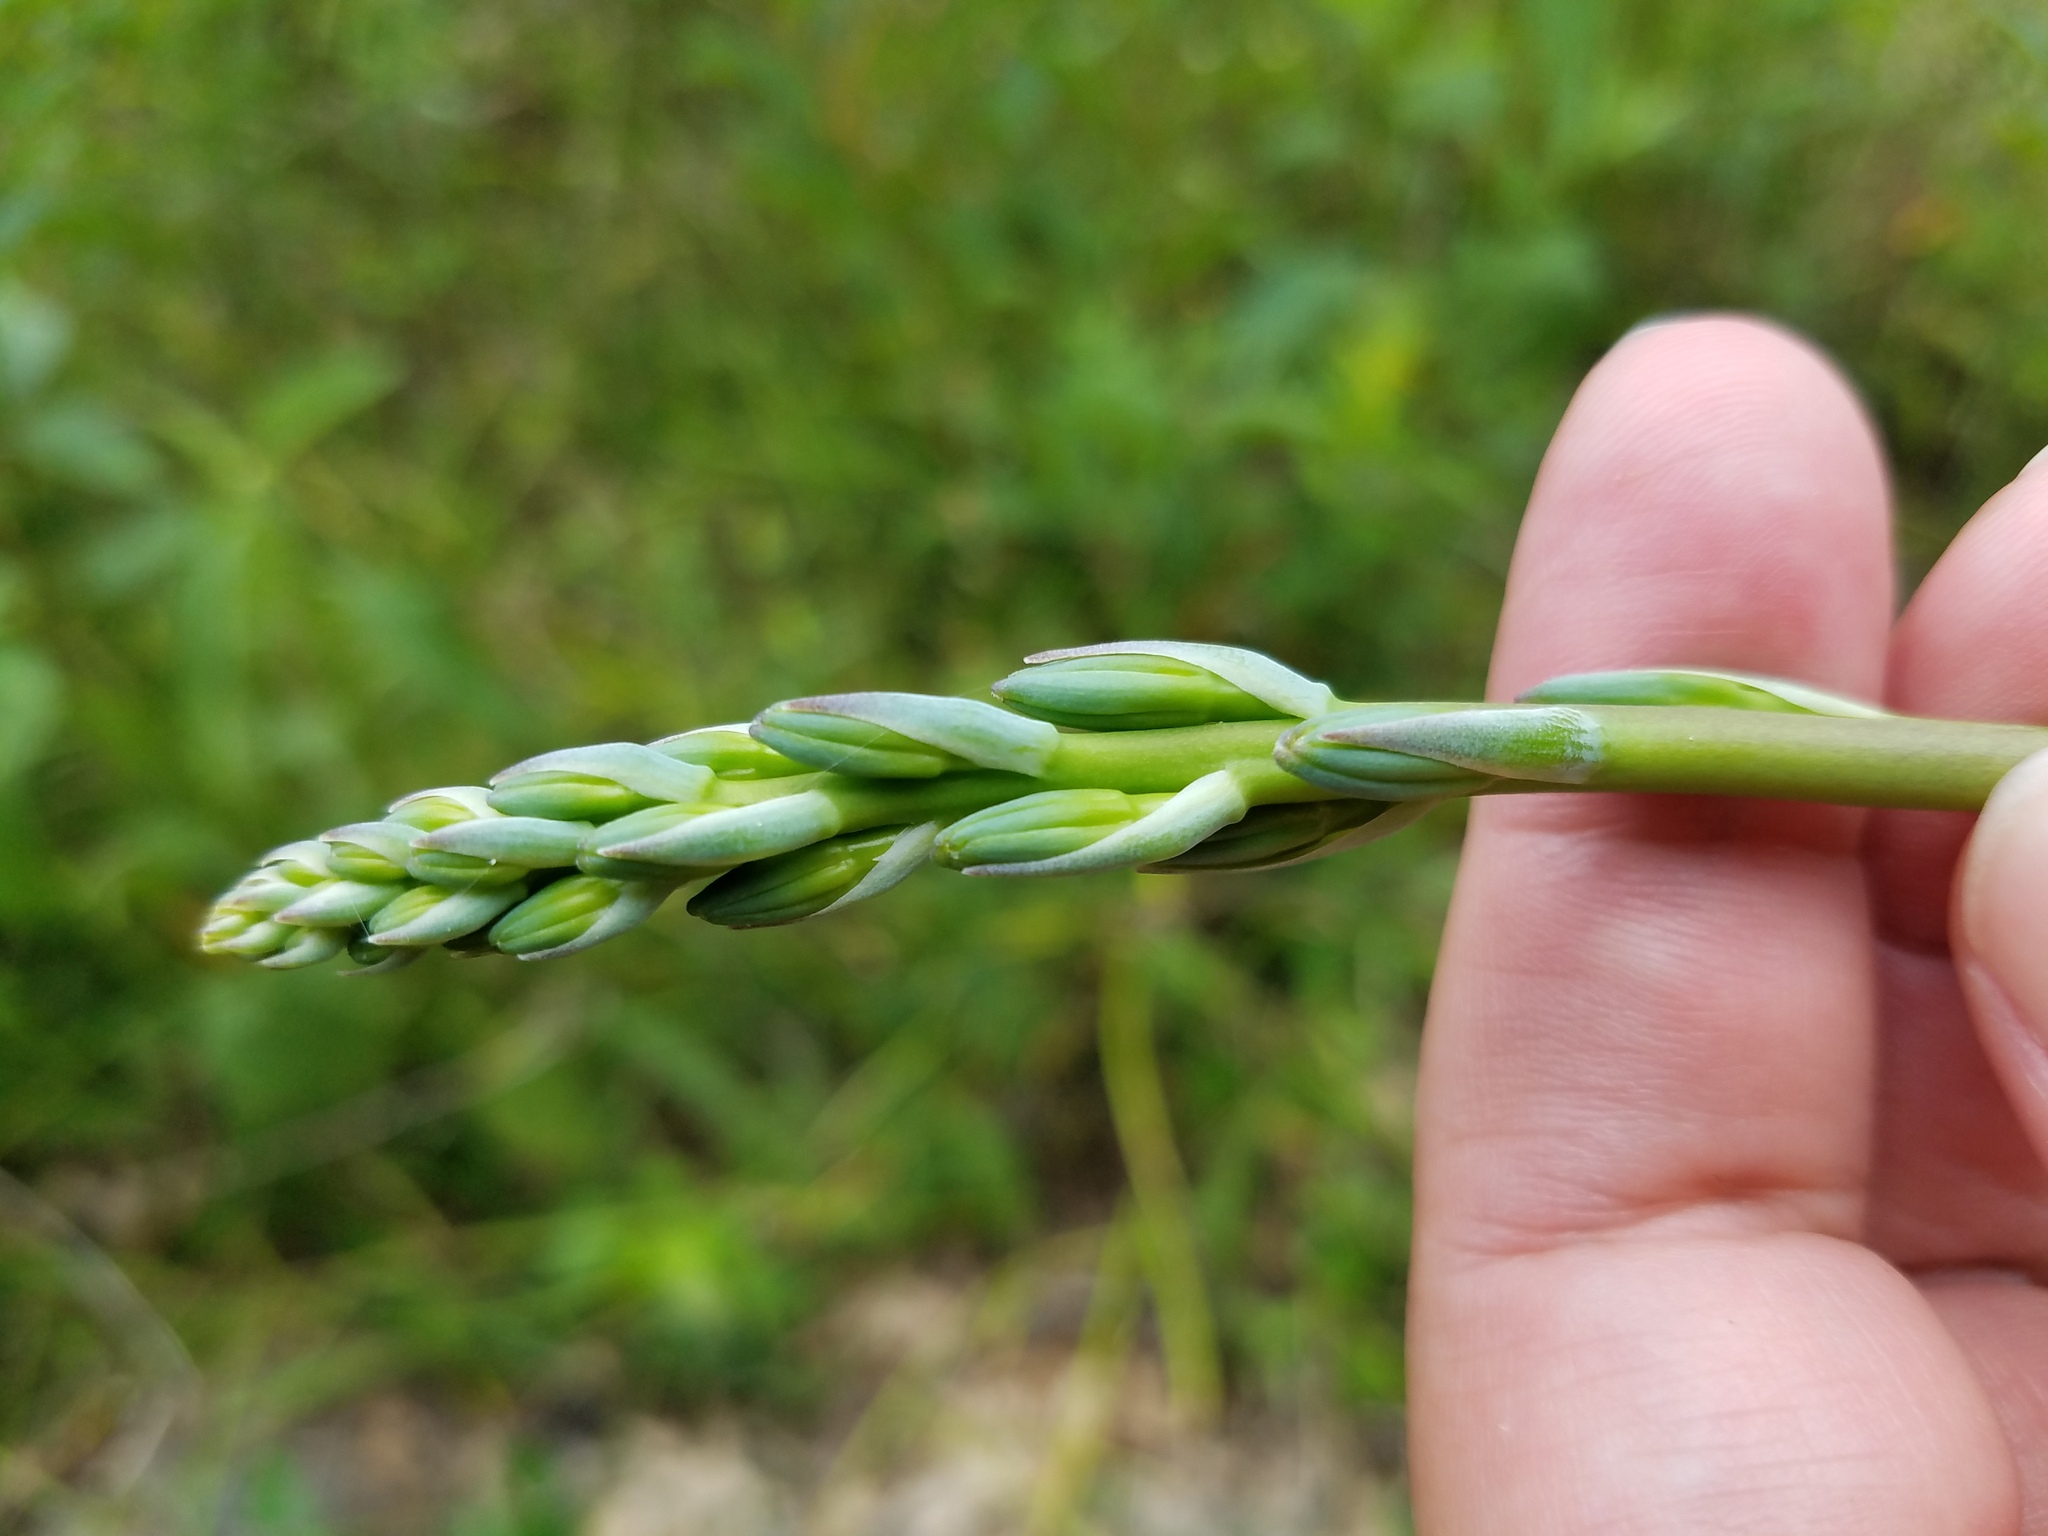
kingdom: Plantae
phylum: Tracheophyta
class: Liliopsida
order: Asparagales
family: Asparagaceae
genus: Agave
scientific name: Agave virginica
